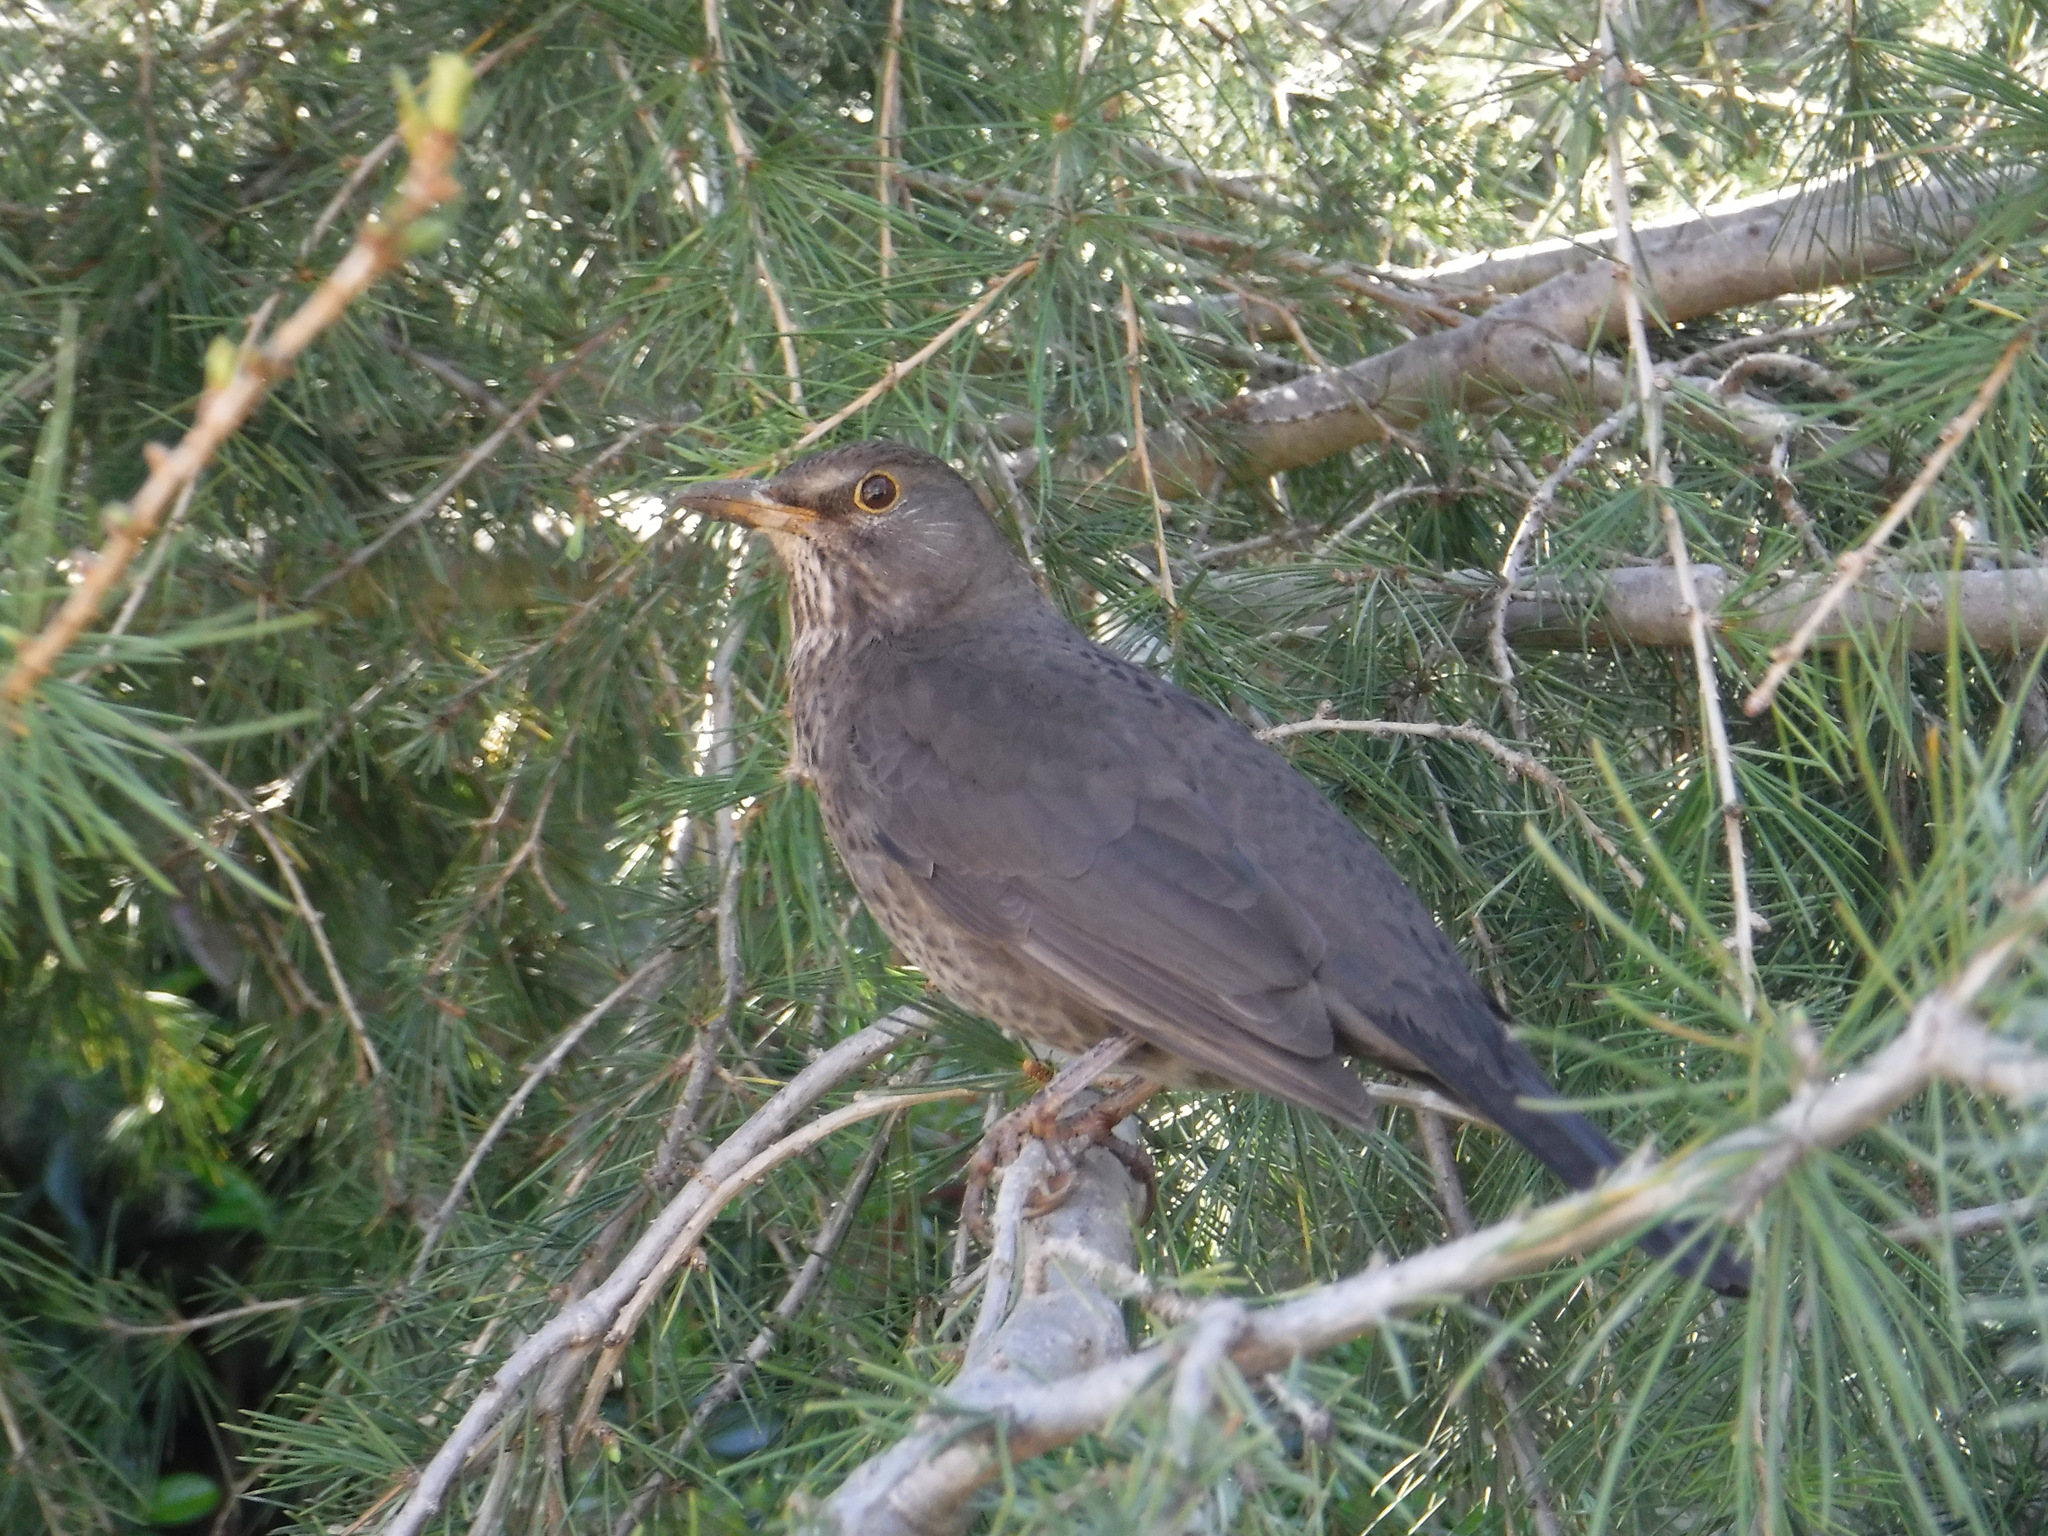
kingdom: Animalia
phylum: Chordata
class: Aves
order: Passeriformes
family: Turdidae
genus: Turdus
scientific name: Turdus merula
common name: Common blackbird
